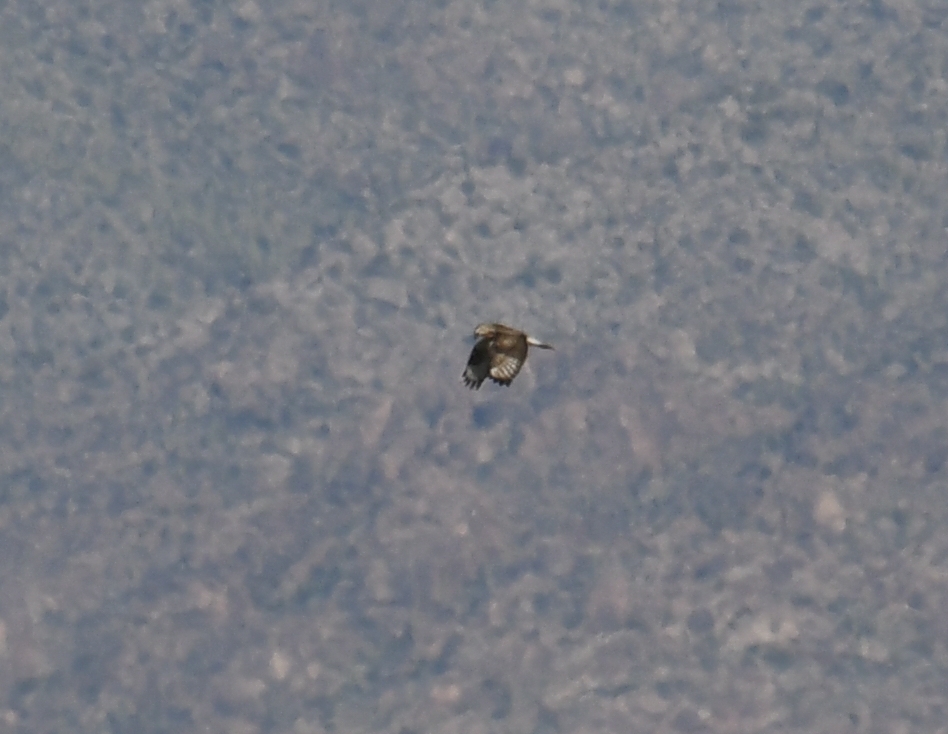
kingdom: Animalia
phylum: Chordata
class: Aves
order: Accipitriformes
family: Accipitridae
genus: Buteo
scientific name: Buteo lagopus
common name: Rough-legged buzzard
